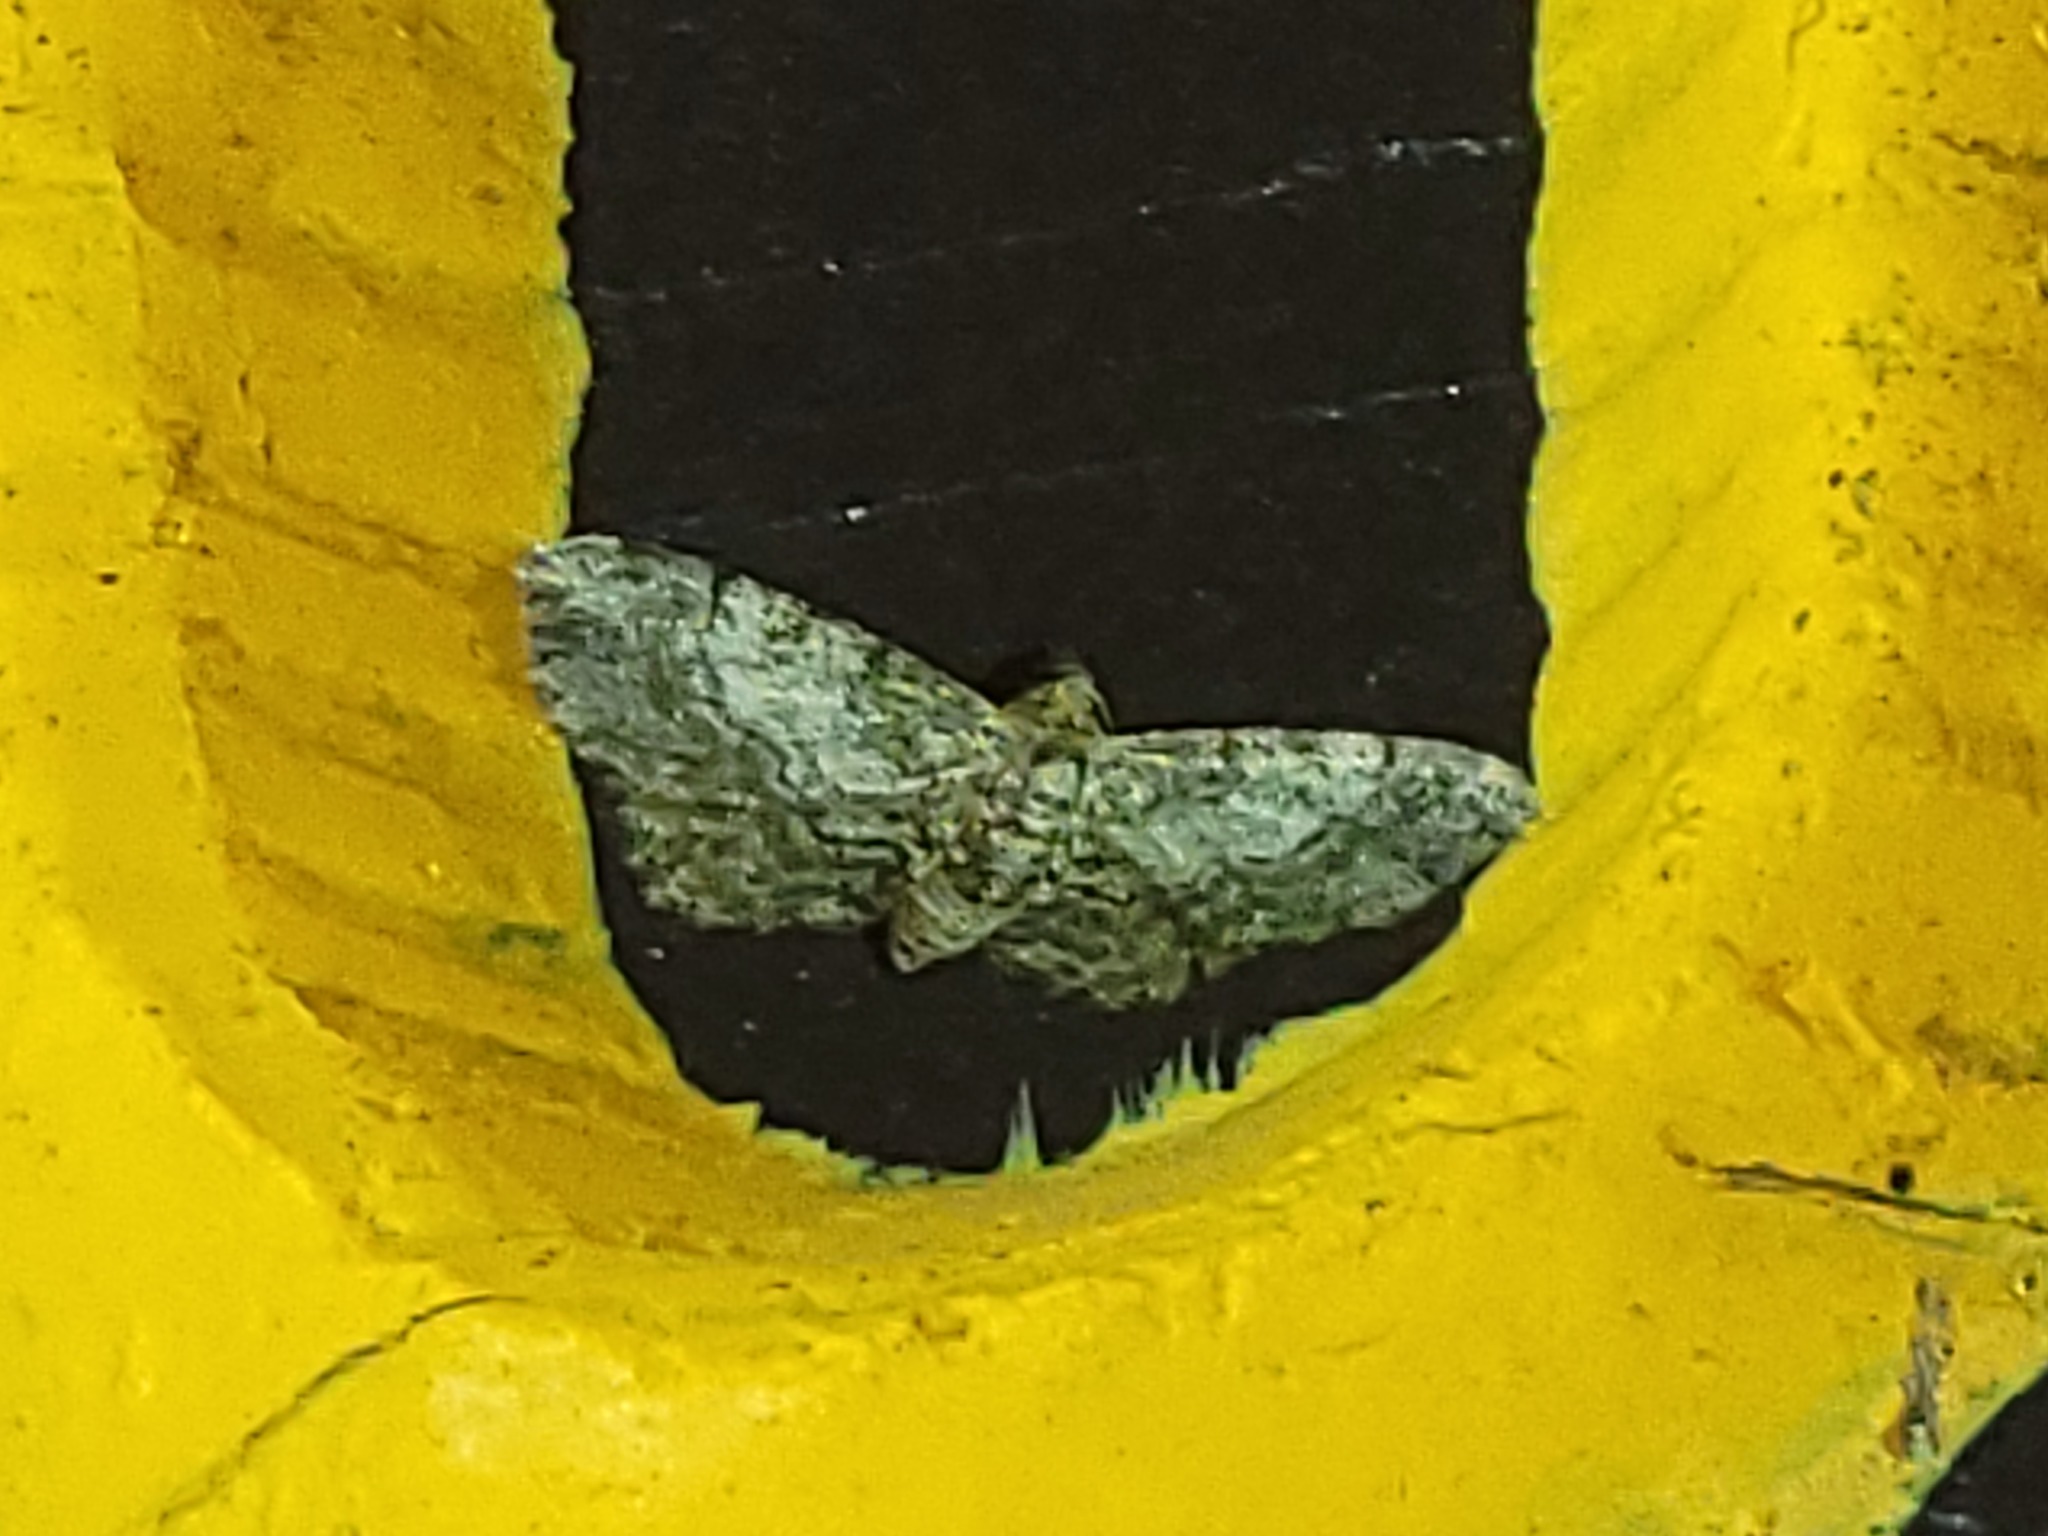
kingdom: Animalia
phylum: Arthropoda
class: Insecta
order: Lepidoptera
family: Geometridae
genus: Glenoides
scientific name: Glenoides texanaria
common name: Texas gray
